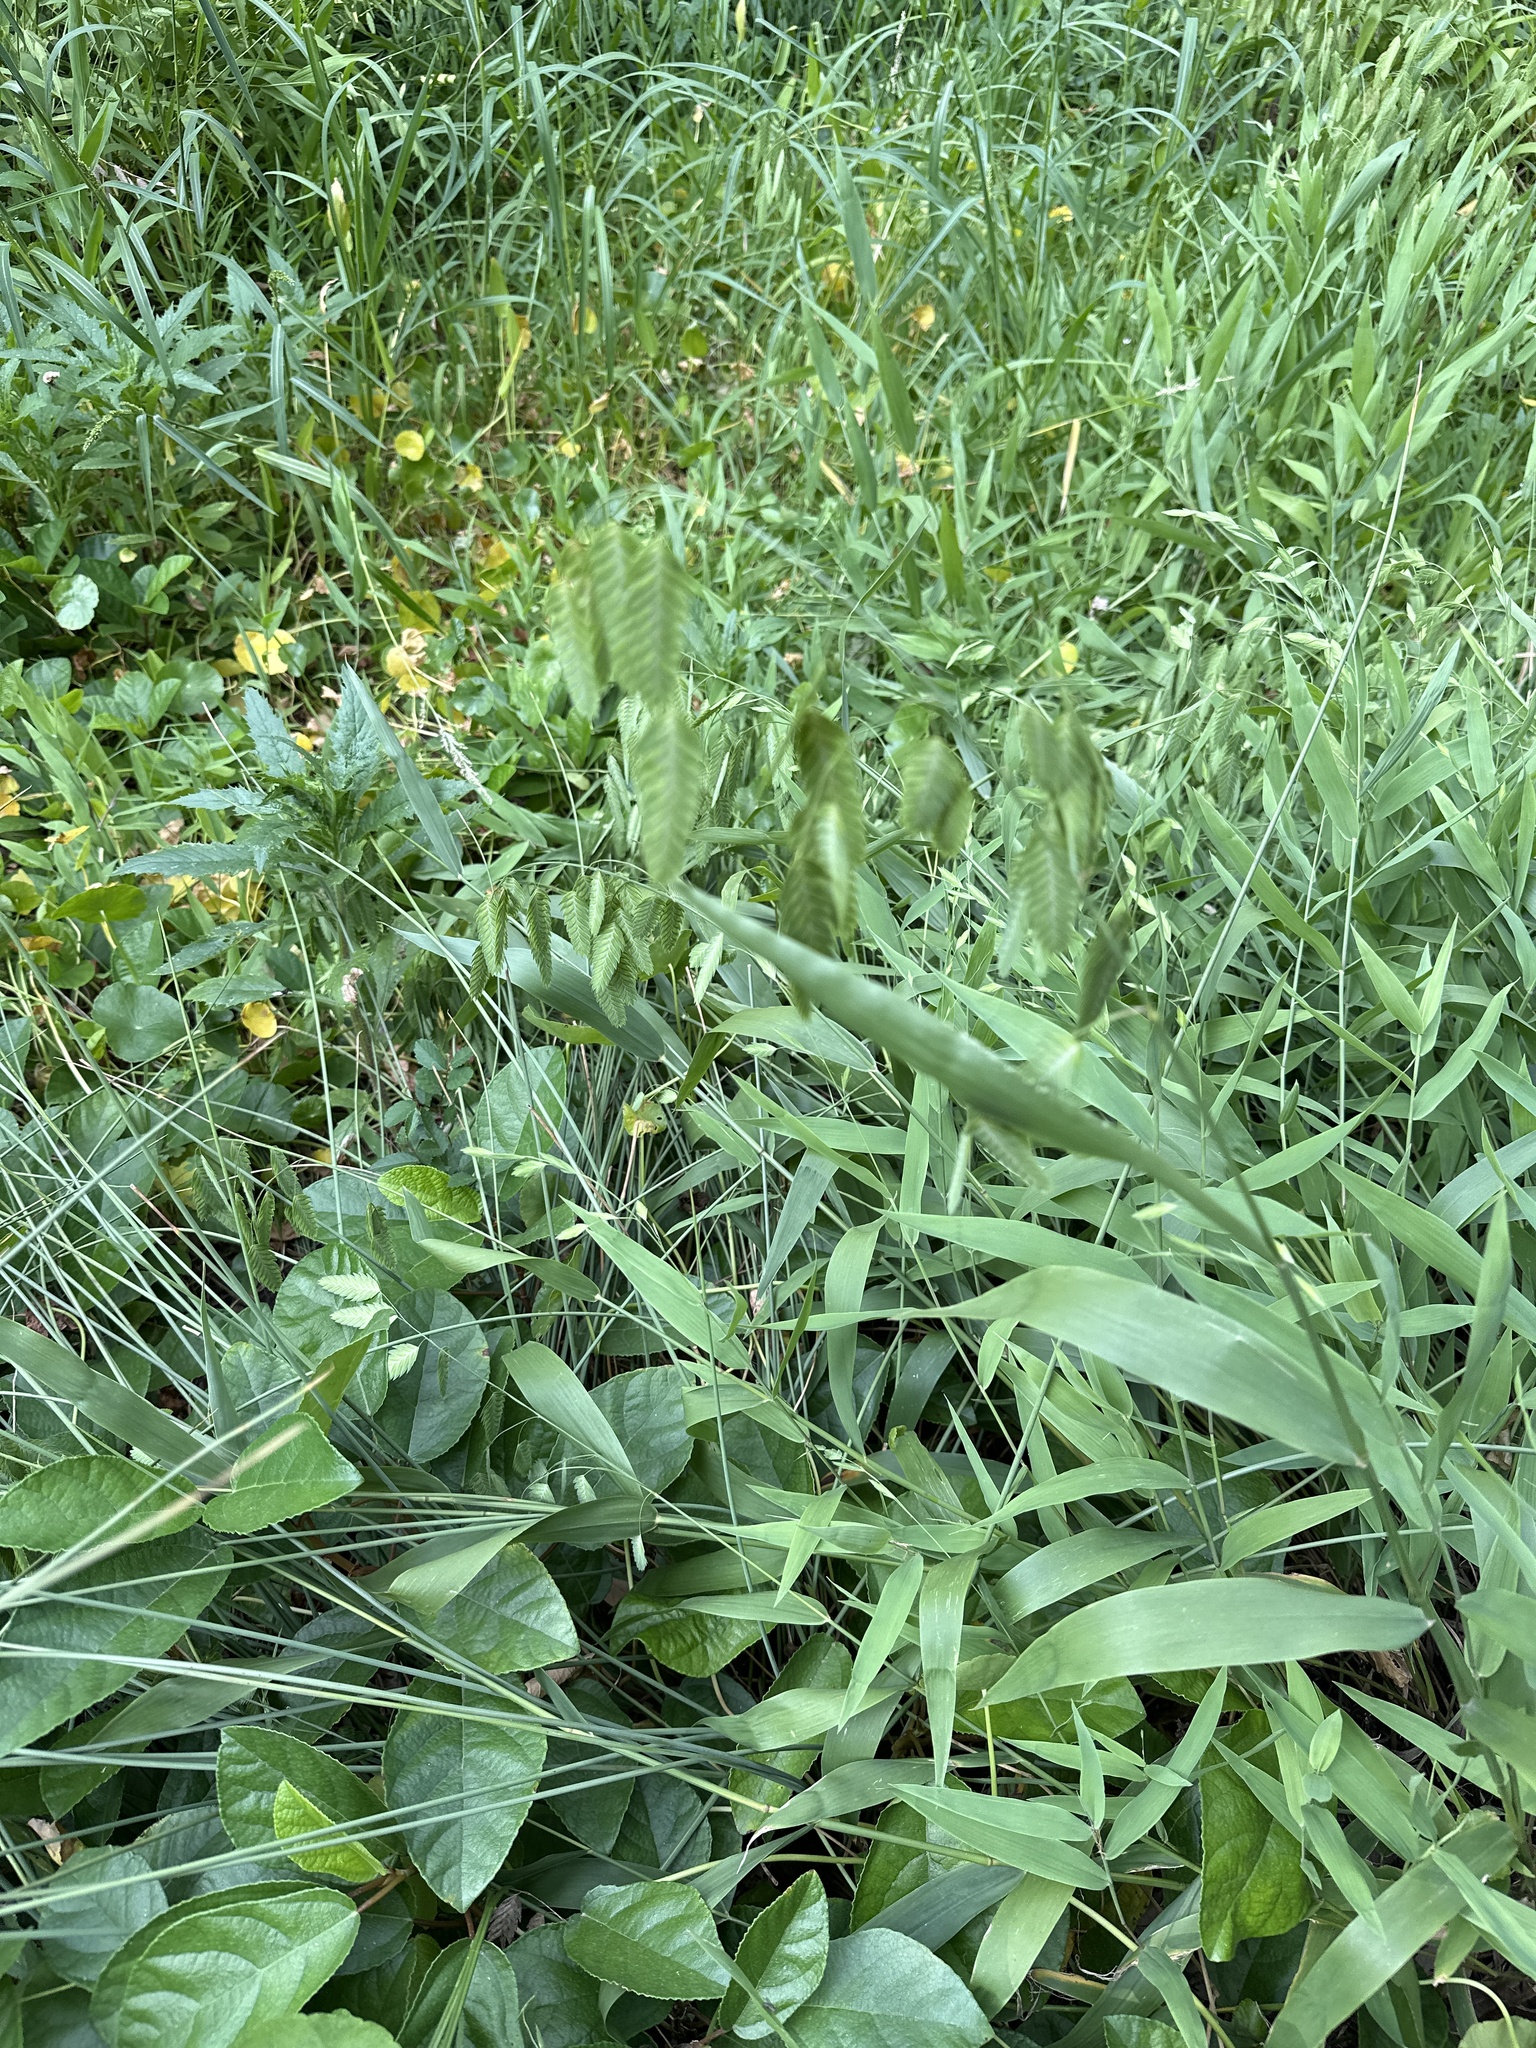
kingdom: Plantae
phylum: Tracheophyta
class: Liliopsida
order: Poales
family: Poaceae
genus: Chasmanthium
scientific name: Chasmanthium latifolium
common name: Broad-leaved chasmanthium
